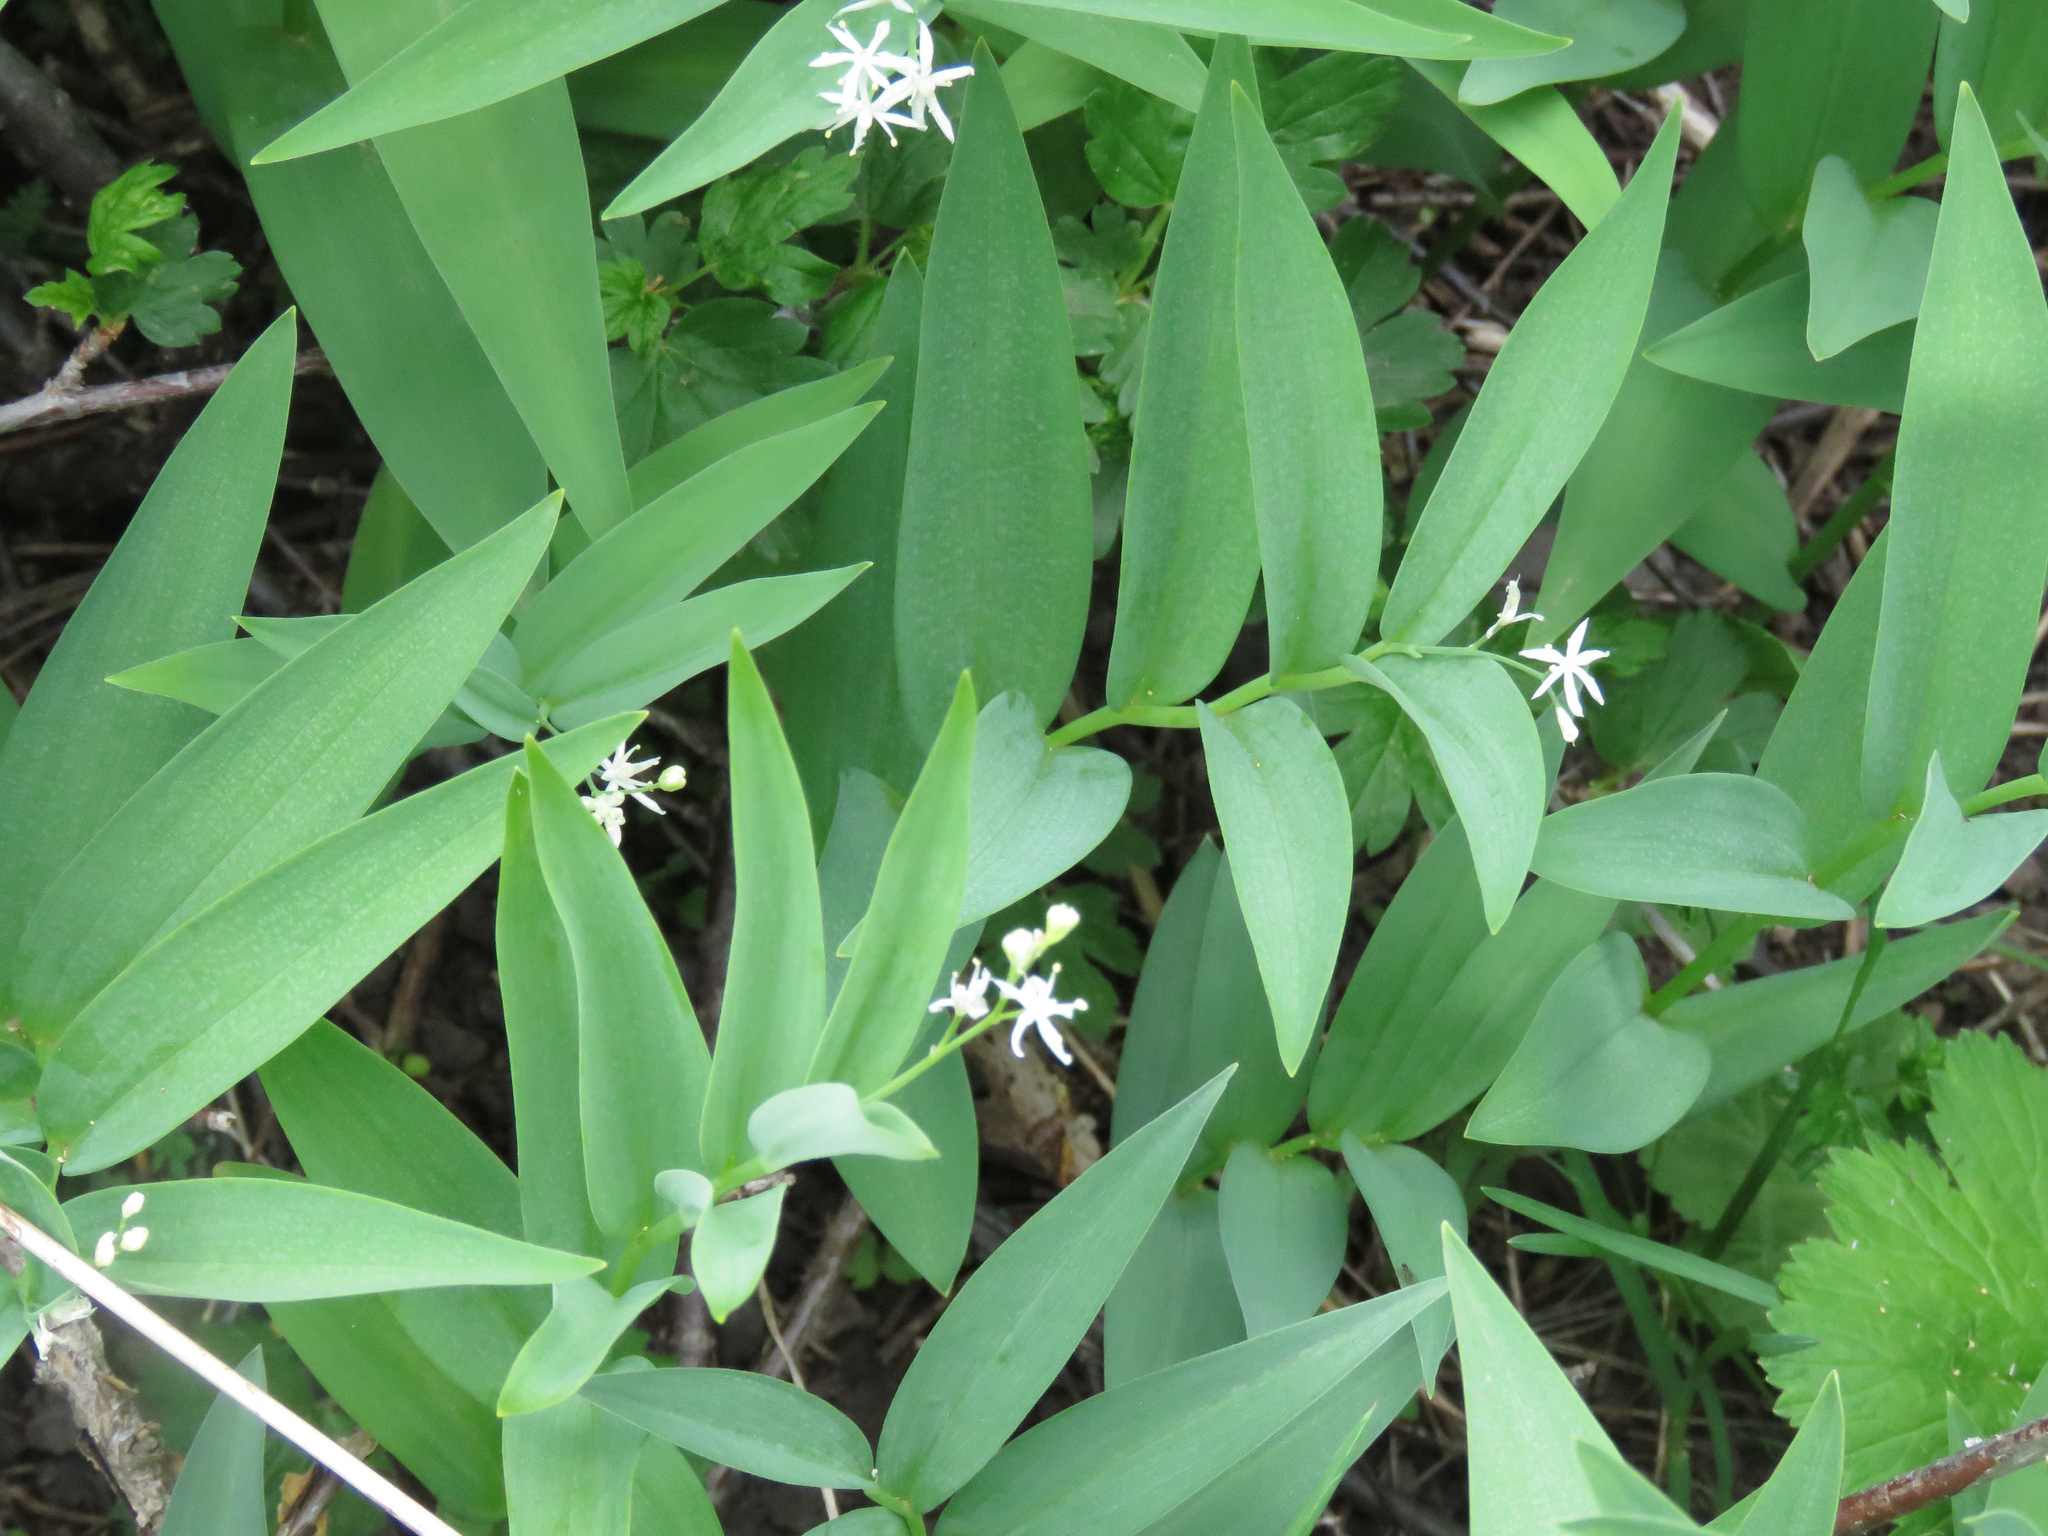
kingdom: Plantae
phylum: Tracheophyta
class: Liliopsida
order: Asparagales
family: Asparagaceae
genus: Maianthemum
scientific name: Maianthemum stellatum
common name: Little false solomon's seal
